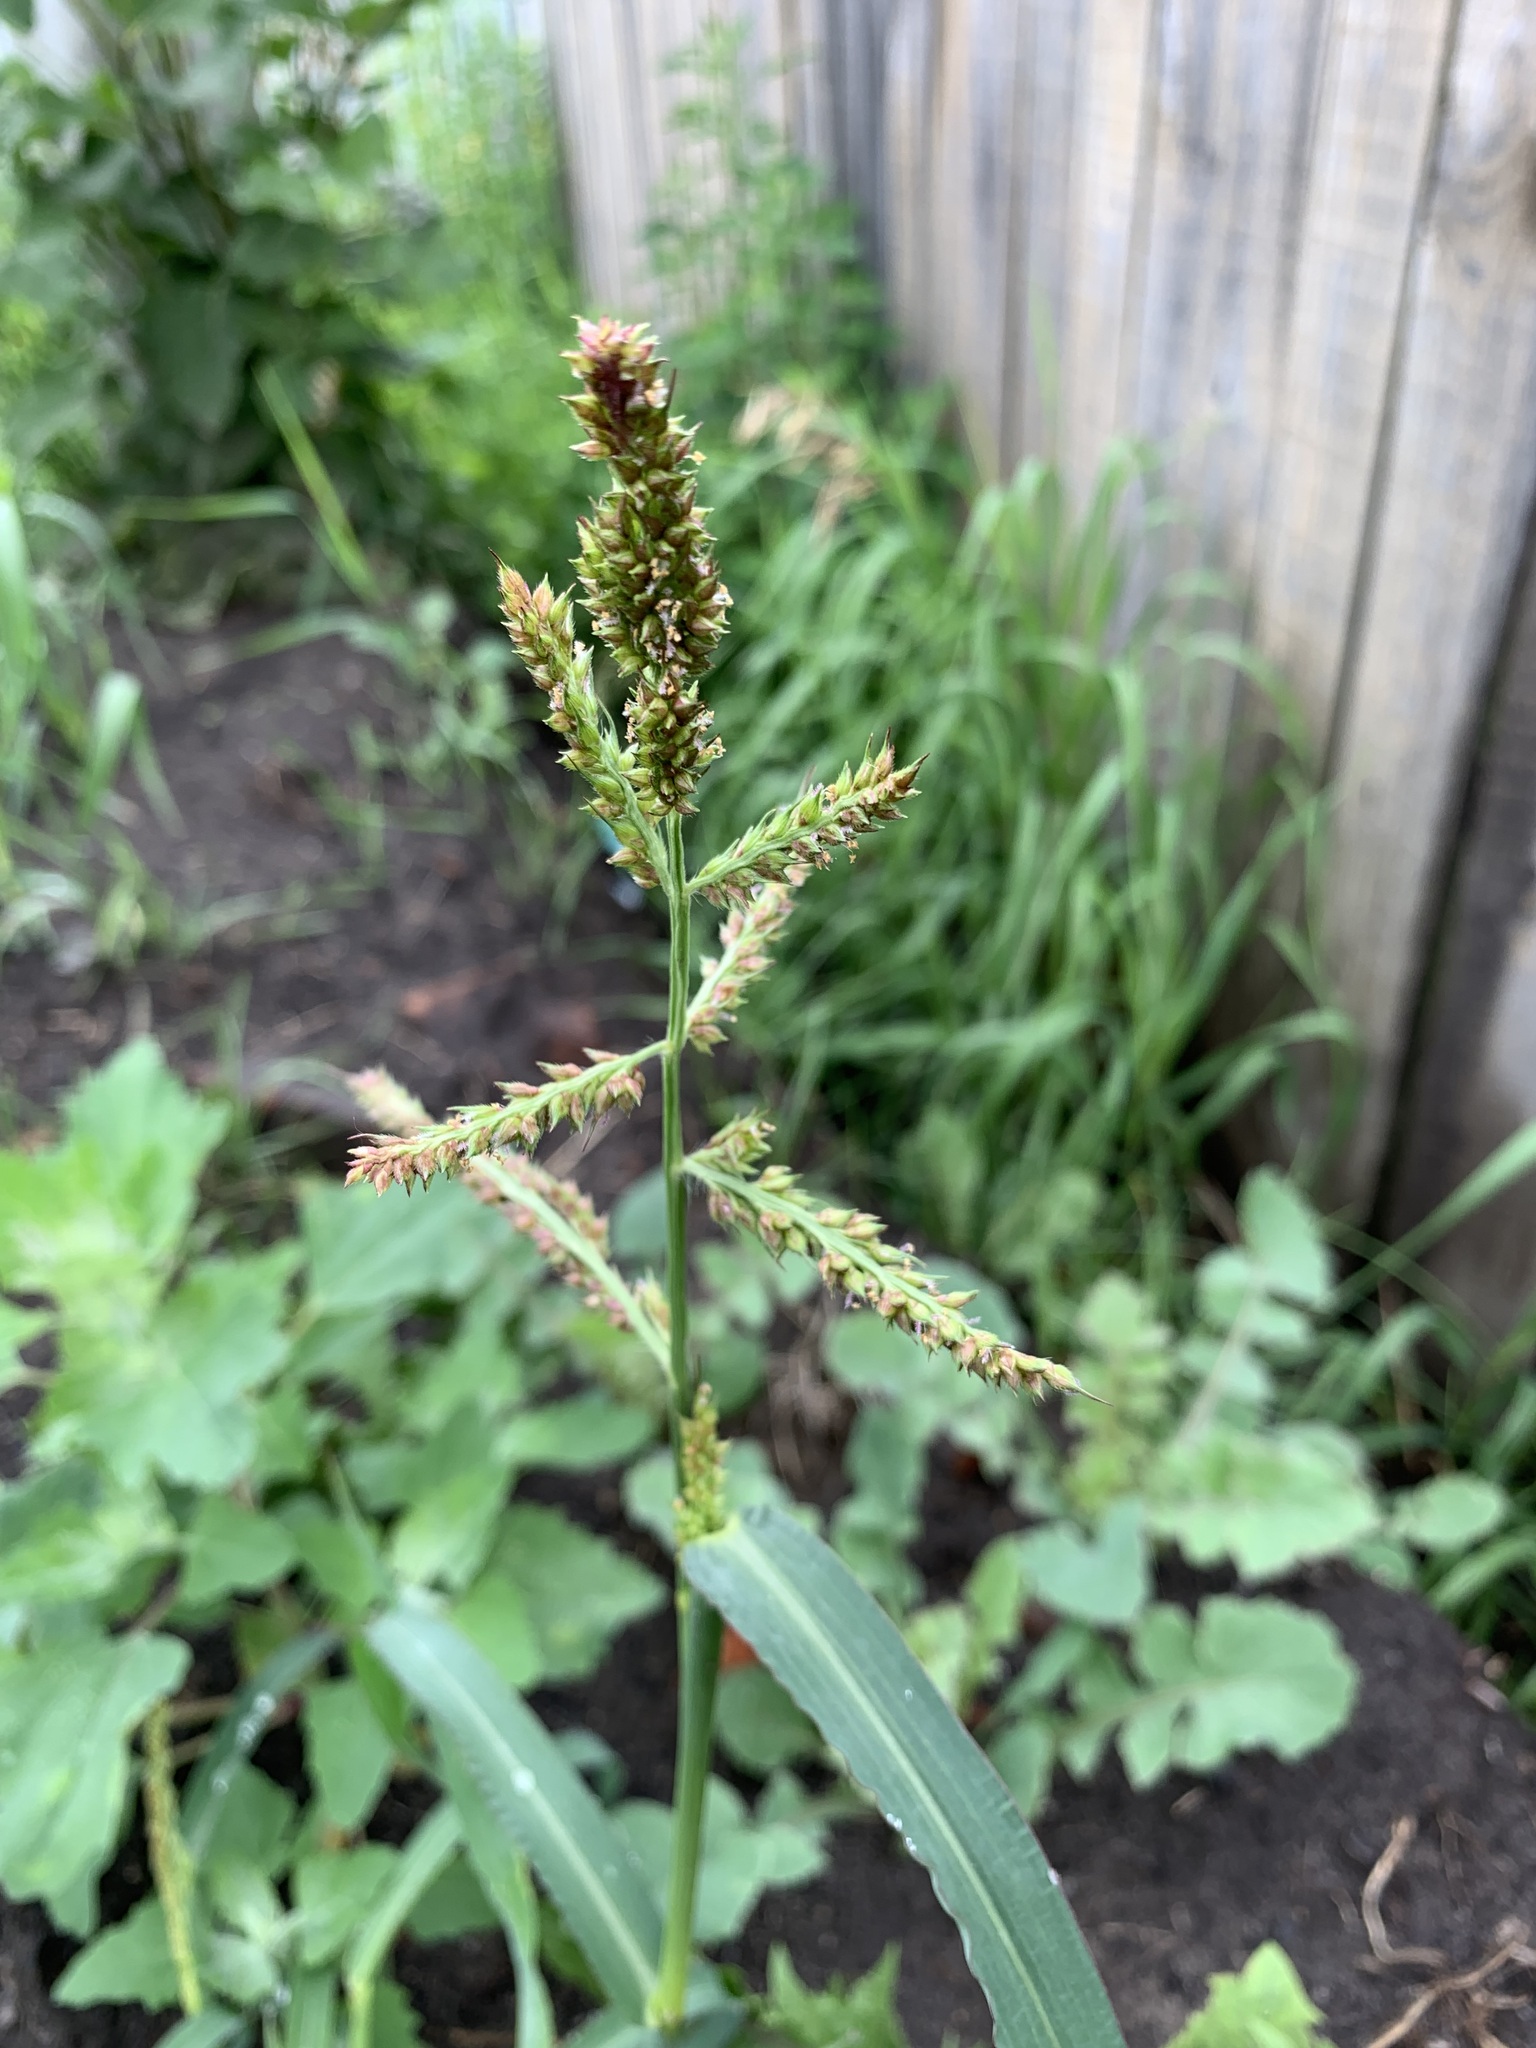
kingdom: Plantae
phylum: Tracheophyta
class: Liliopsida
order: Poales
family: Poaceae
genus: Echinochloa
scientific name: Echinochloa crus-galli
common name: Cockspur
